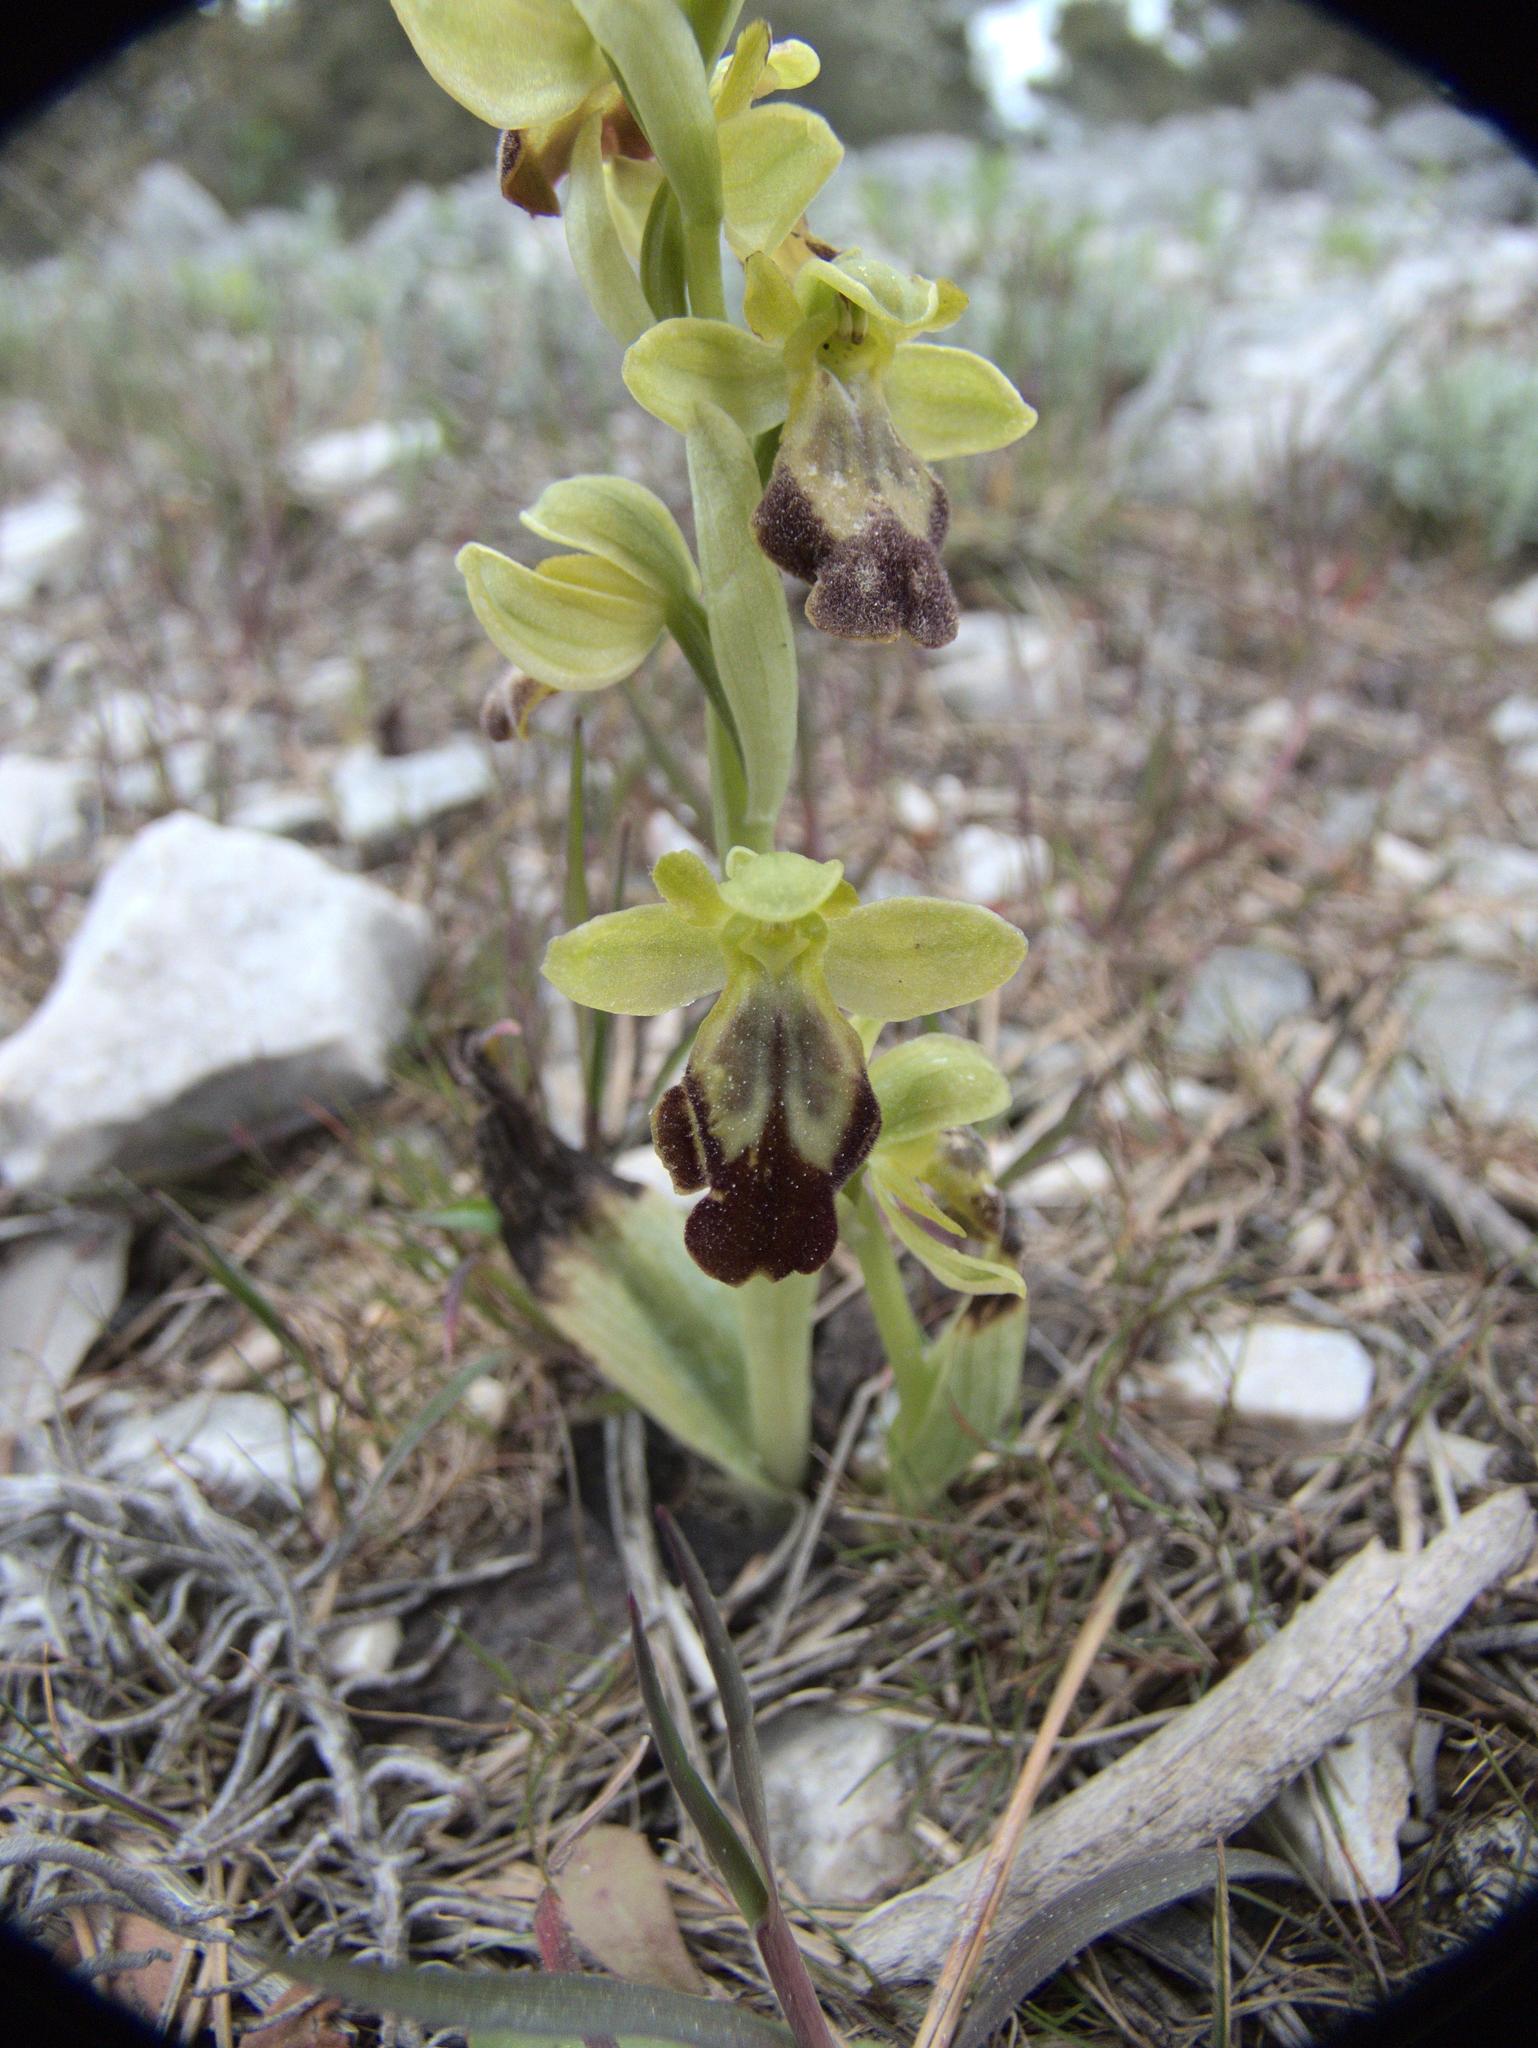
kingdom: Plantae
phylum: Tracheophyta
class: Liliopsida
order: Asparagales
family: Orchidaceae
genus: Ophrys
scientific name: Ophrys fusca
